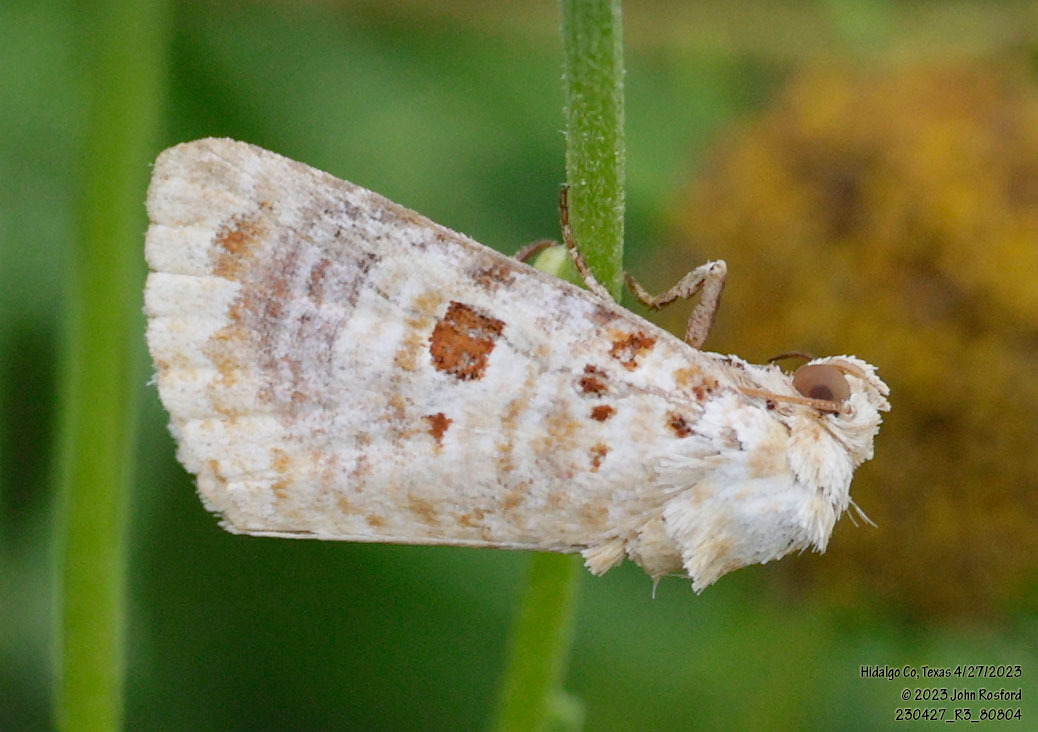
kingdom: Animalia
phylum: Arthropoda
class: Insecta
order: Lepidoptera
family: Noctuidae
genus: Diastema
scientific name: Diastema tigris
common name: Lantana moth
